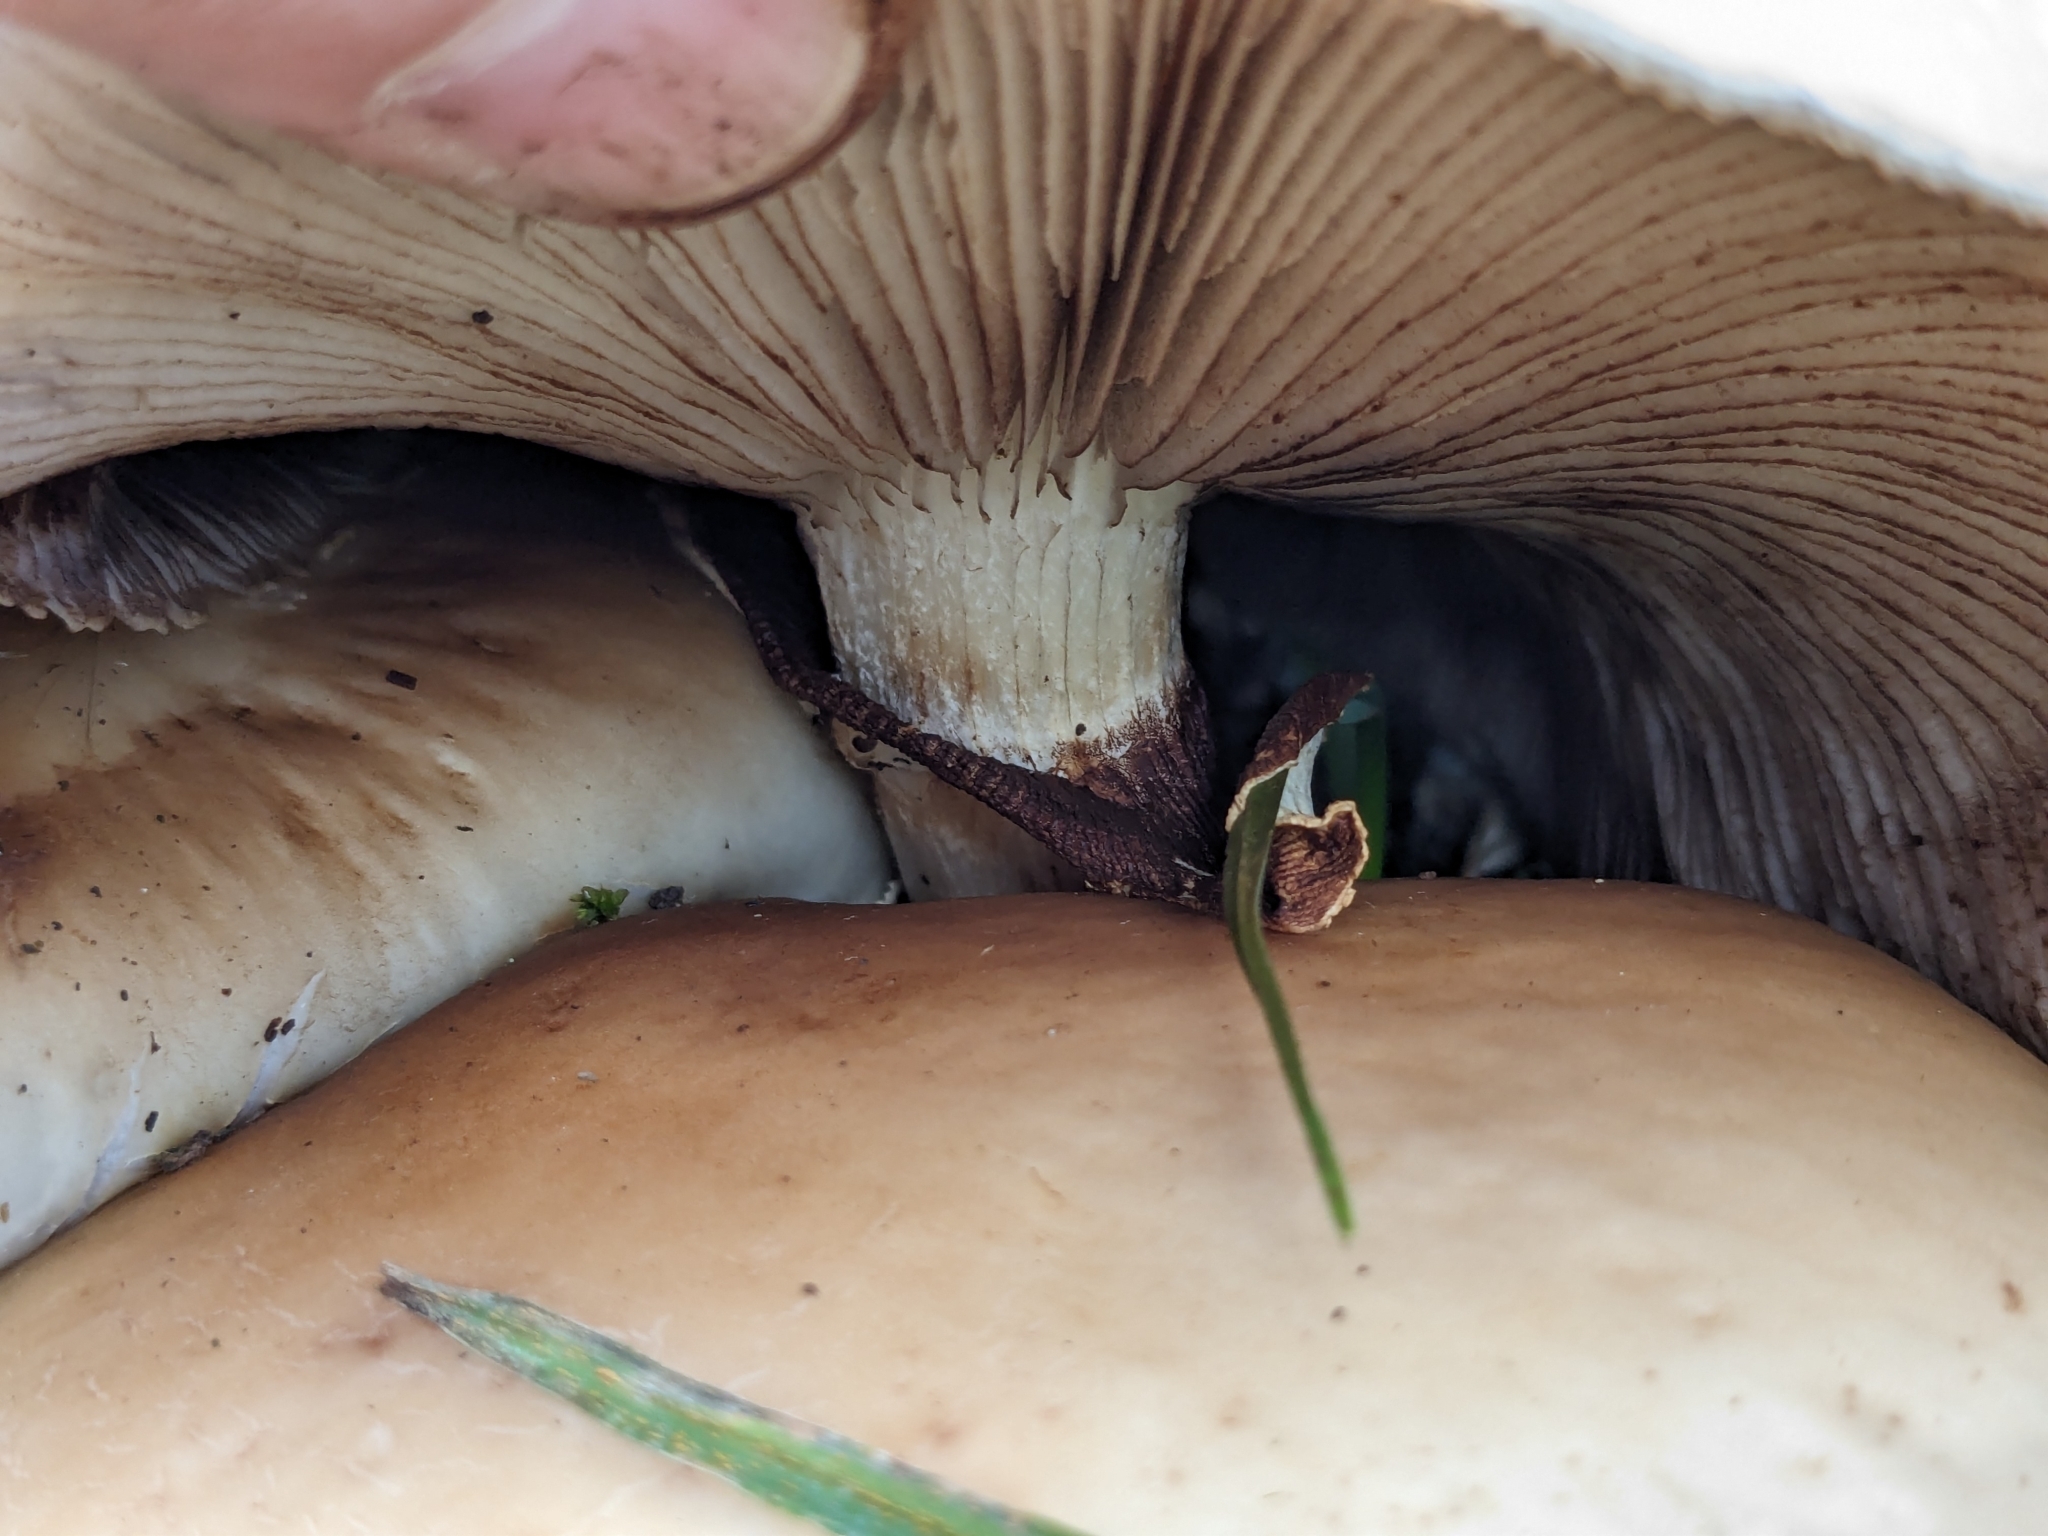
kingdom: Fungi
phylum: Basidiomycota
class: Agaricomycetes
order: Agaricales
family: Tubariaceae
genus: Cyclocybe
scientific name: Cyclocybe parasitica
